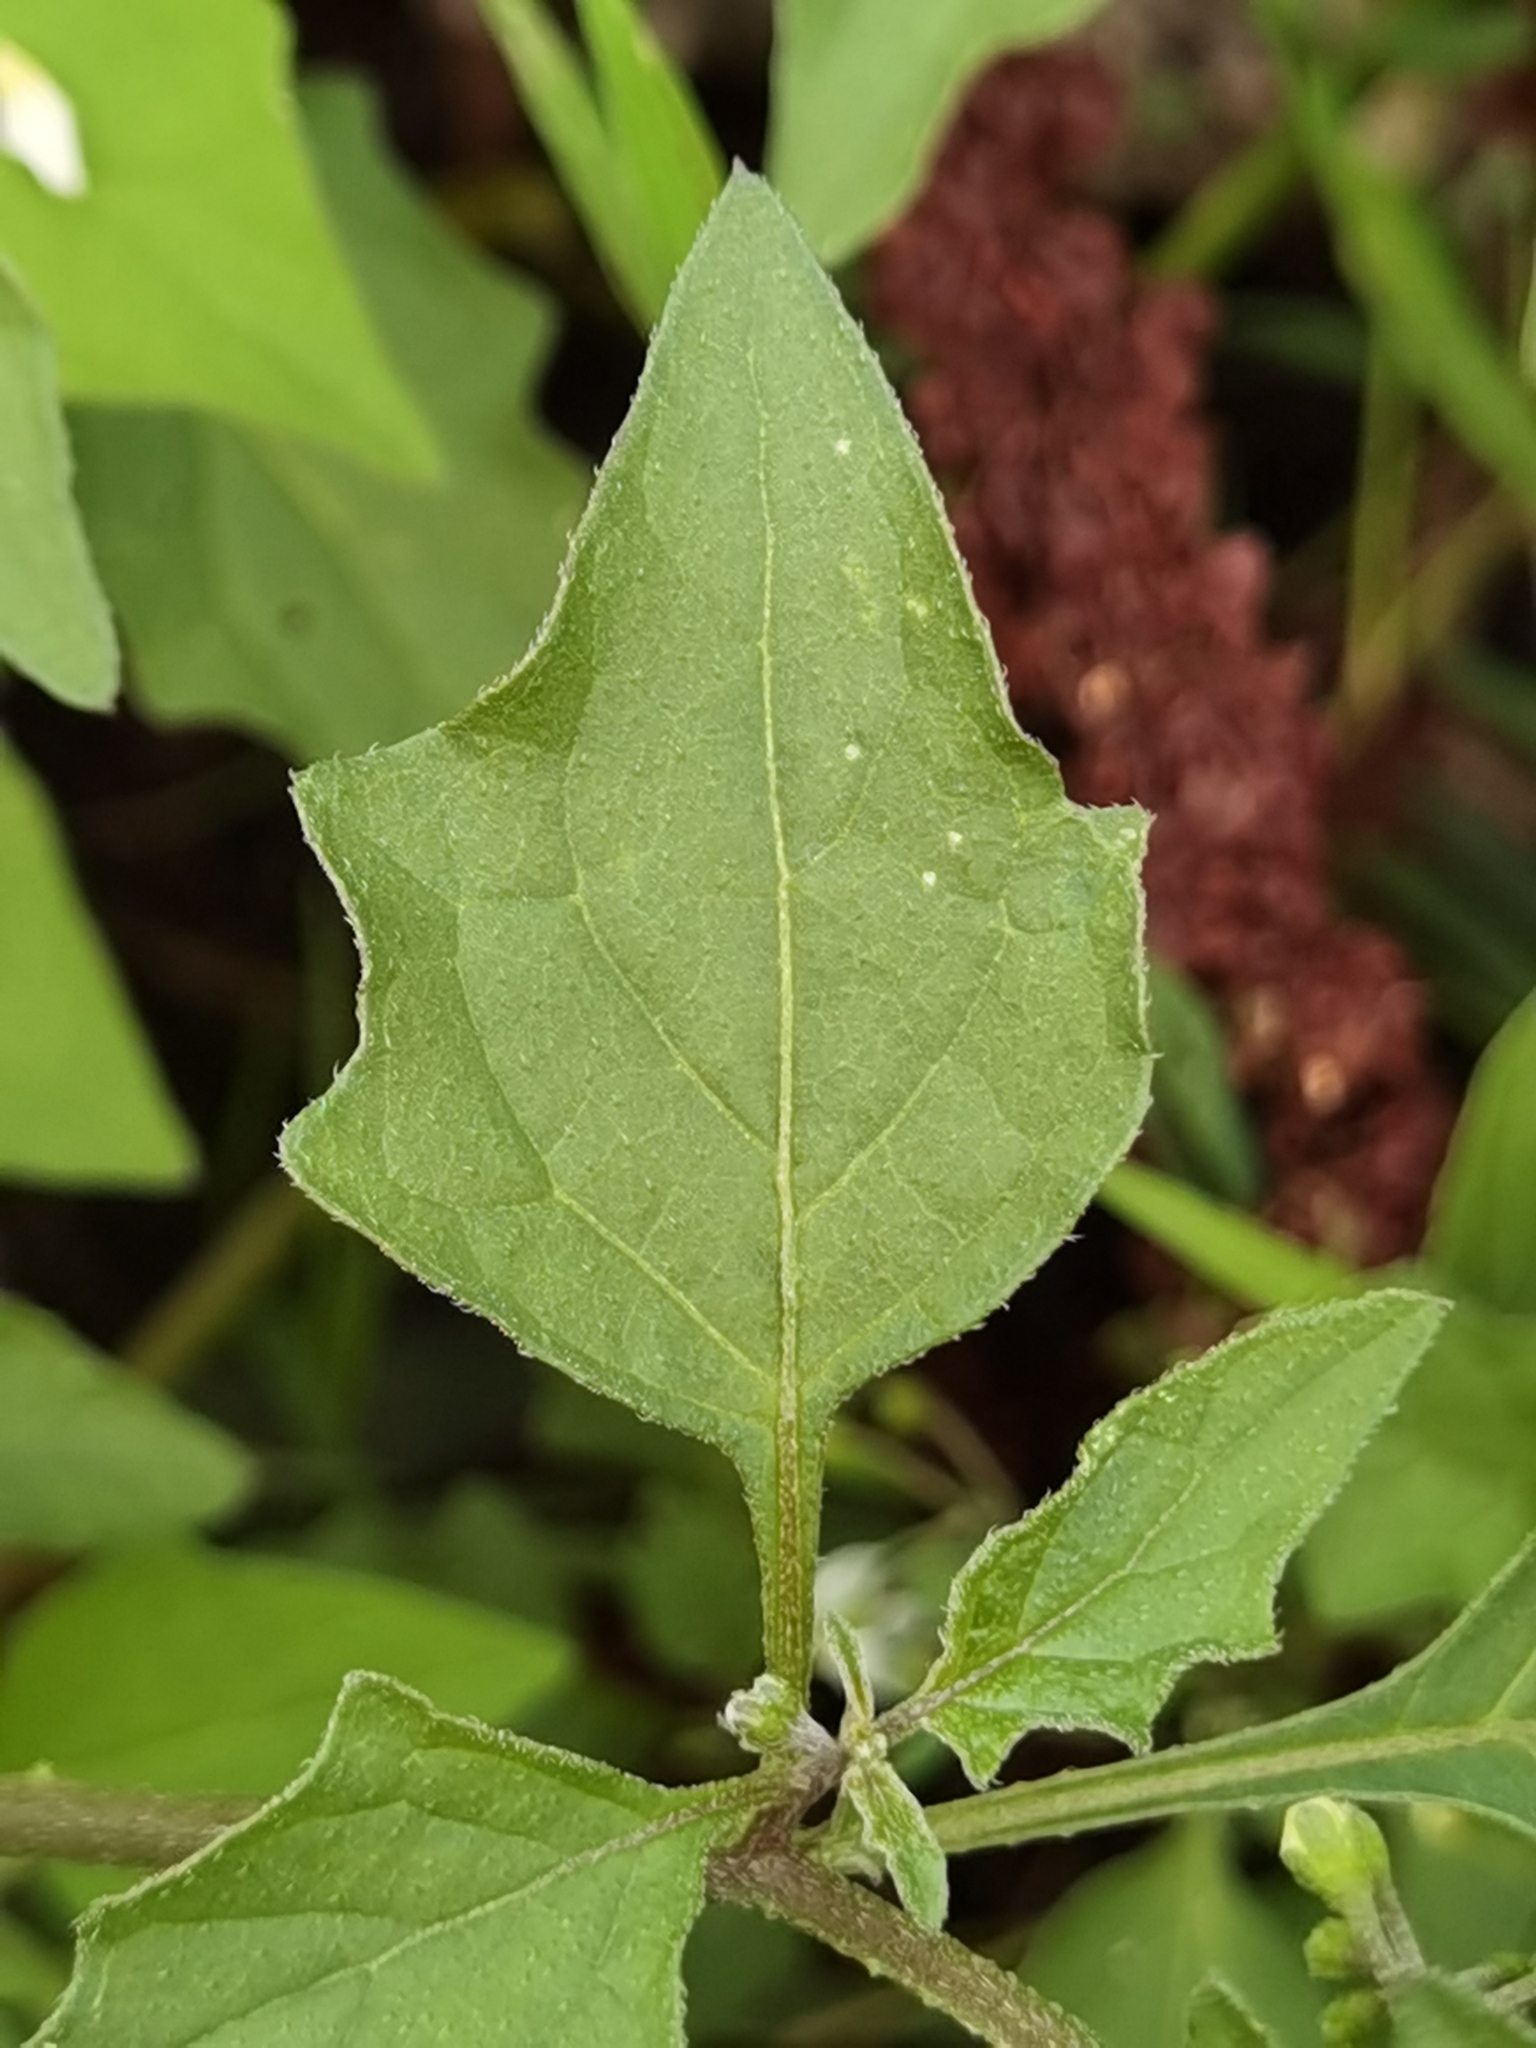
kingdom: Plantae
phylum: Tracheophyta
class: Magnoliopsida
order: Solanales
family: Solanaceae
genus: Solanum
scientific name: Solanum nigrum
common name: Black nightshade
